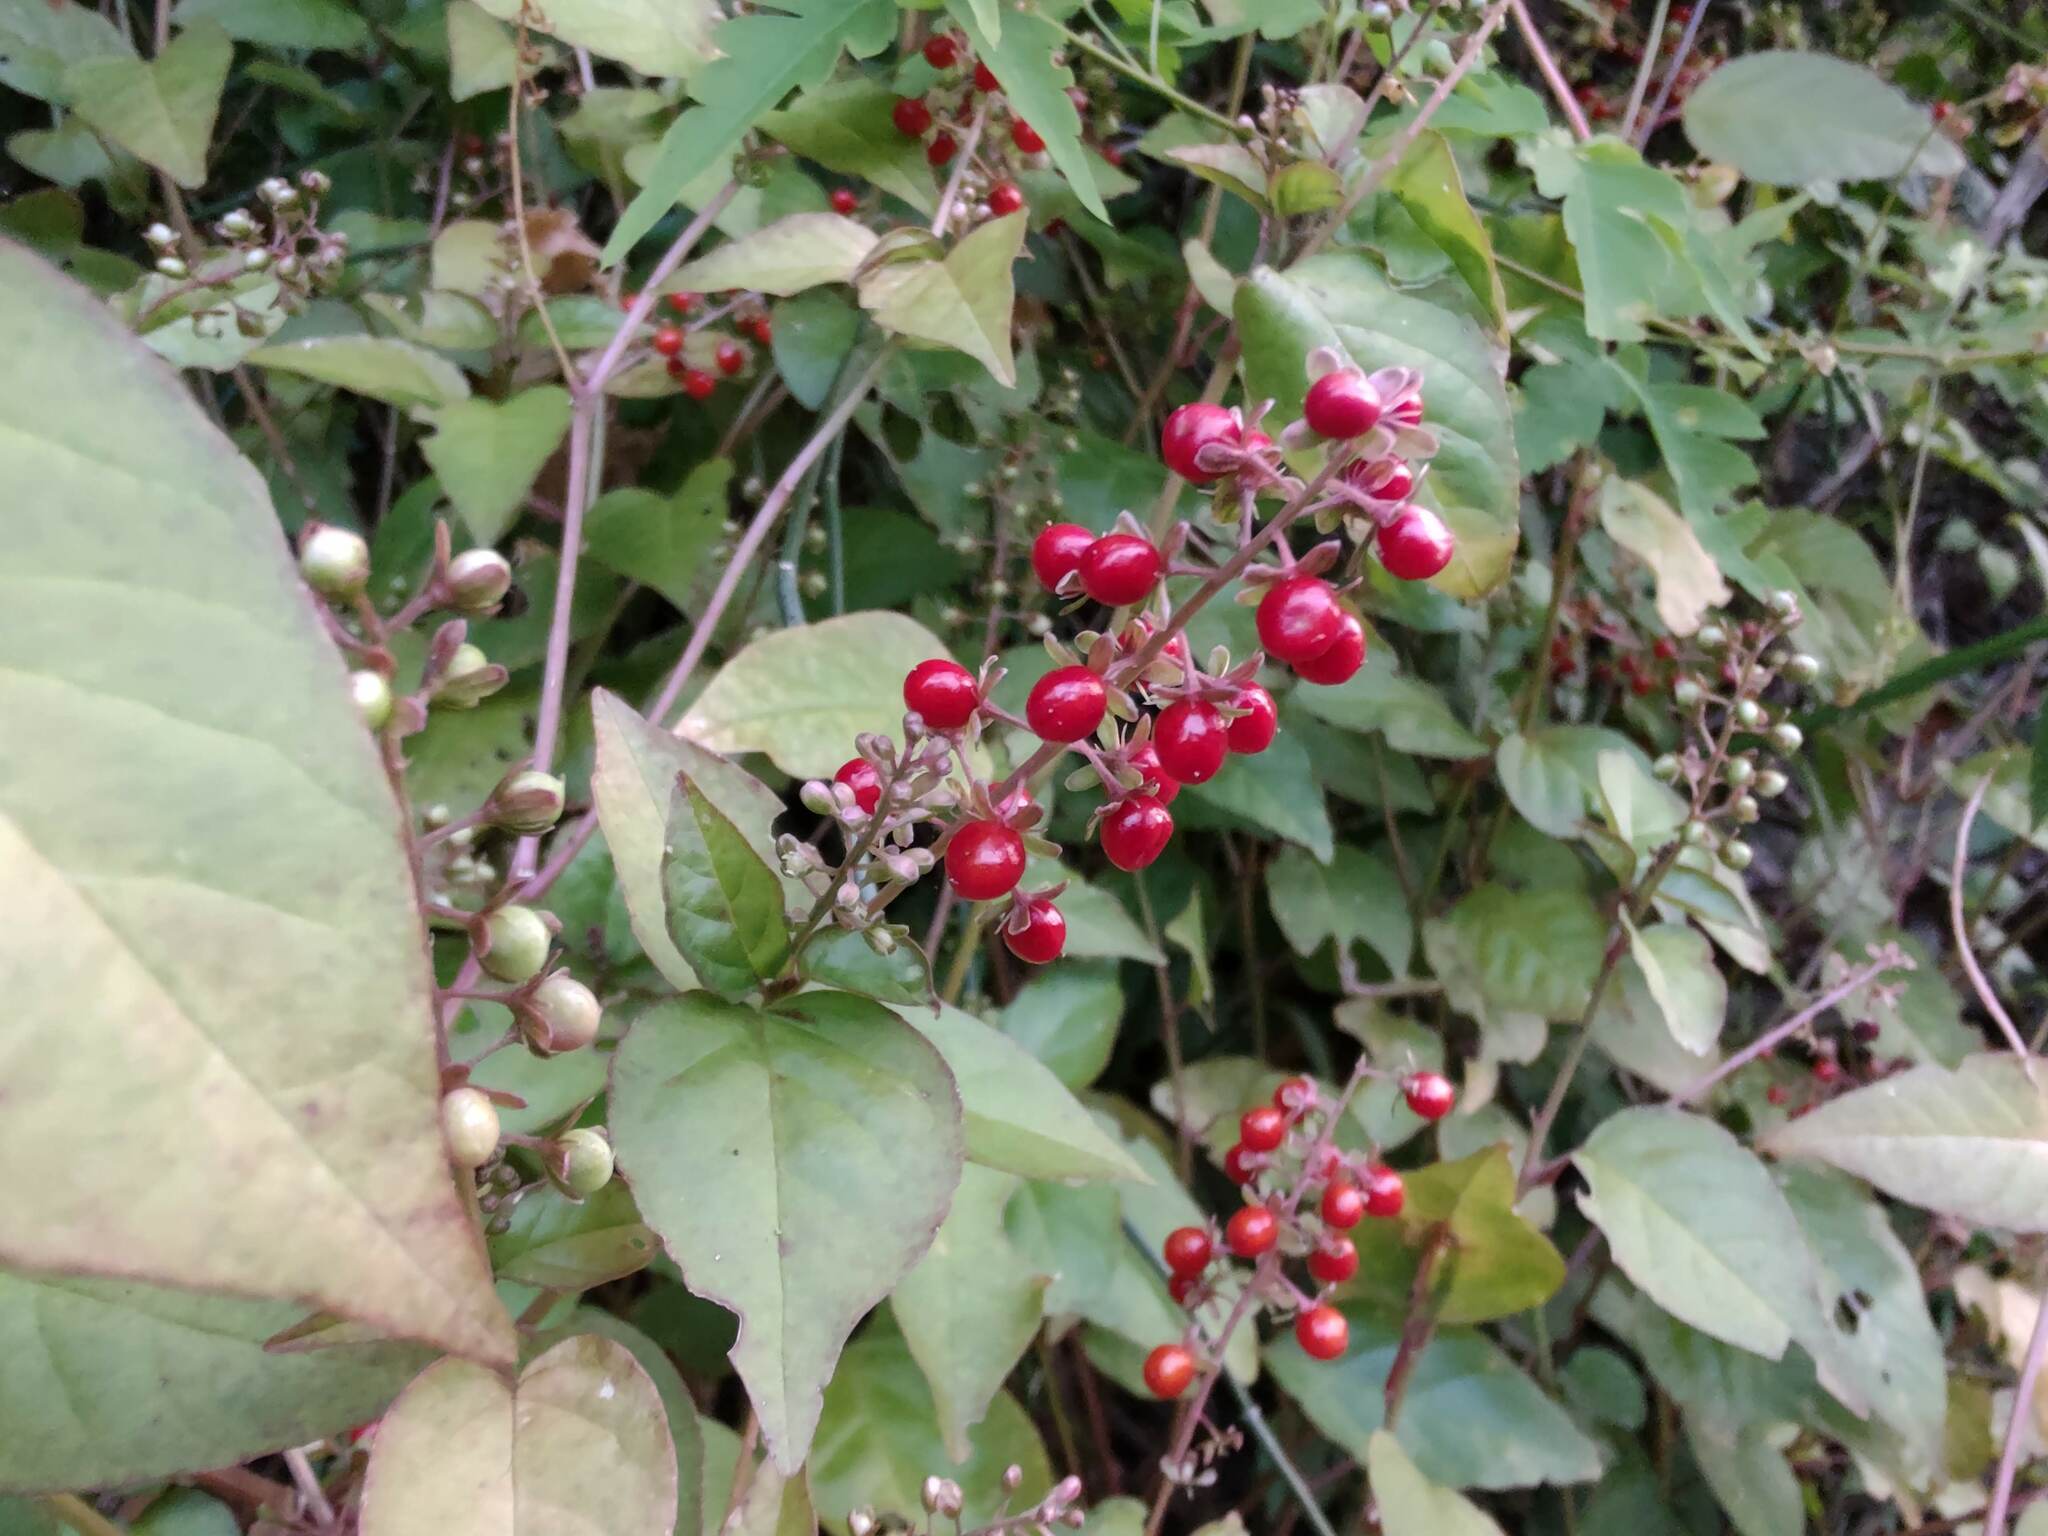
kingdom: Plantae
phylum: Tracheophyta
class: Magnoliopsida
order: Caryophyllales
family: Phytolaccaceae
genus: Rivina
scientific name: Rivina humilis
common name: Rougeplant
